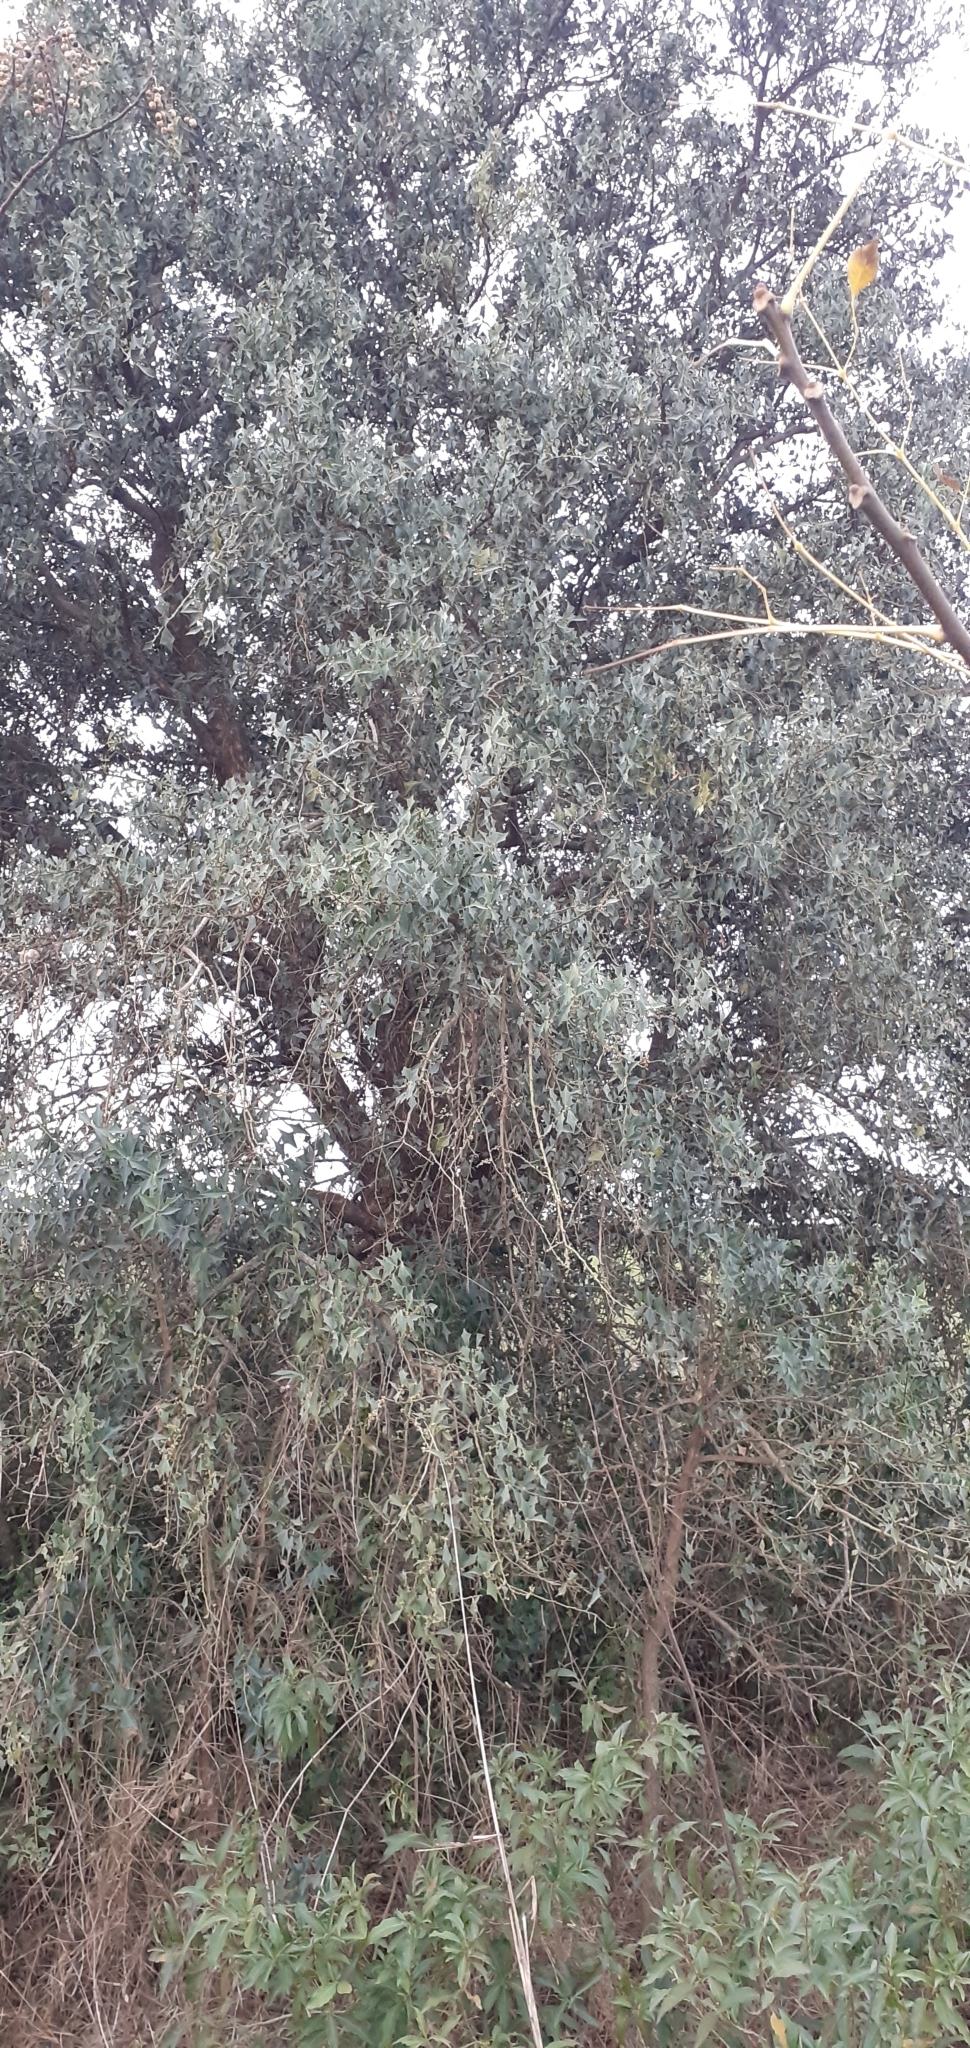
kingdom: Plantae
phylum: Tracheophyta
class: Magnoliopsida
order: Santalales
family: Cervantesiaceae
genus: Jodina
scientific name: Jodina rhombifolia
